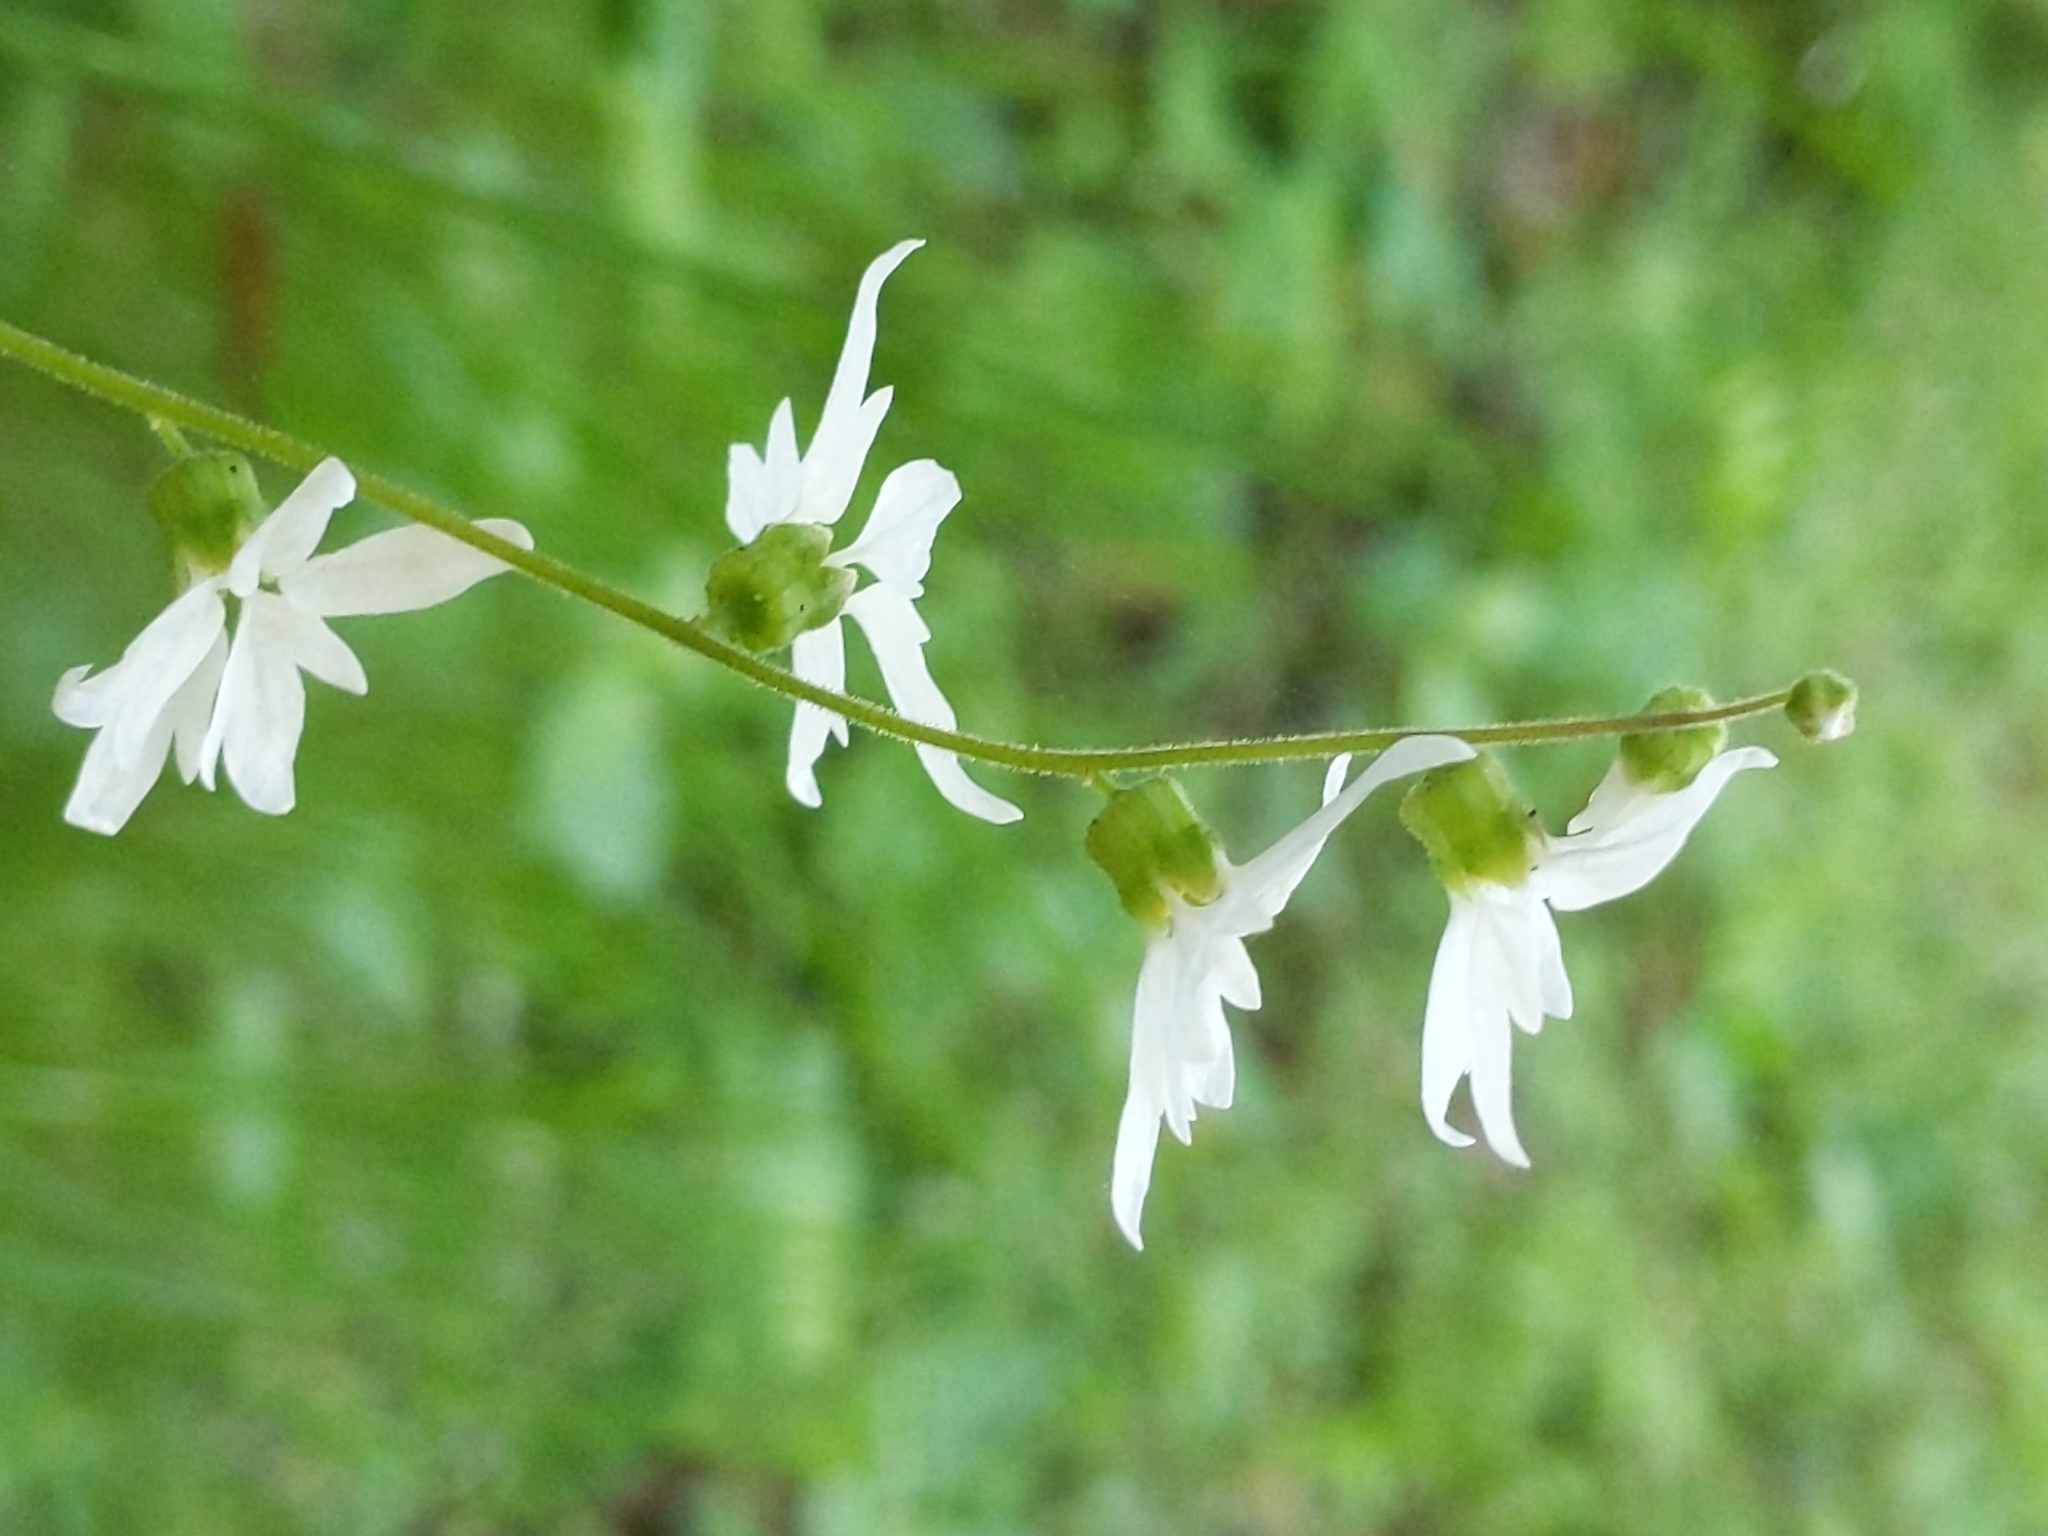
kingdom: Plantae
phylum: Tracheophyta
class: Magnoliopsida
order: Saxifragales
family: Saxifragaceae
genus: Lithophragma
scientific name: Lithophragma heterophyllum
